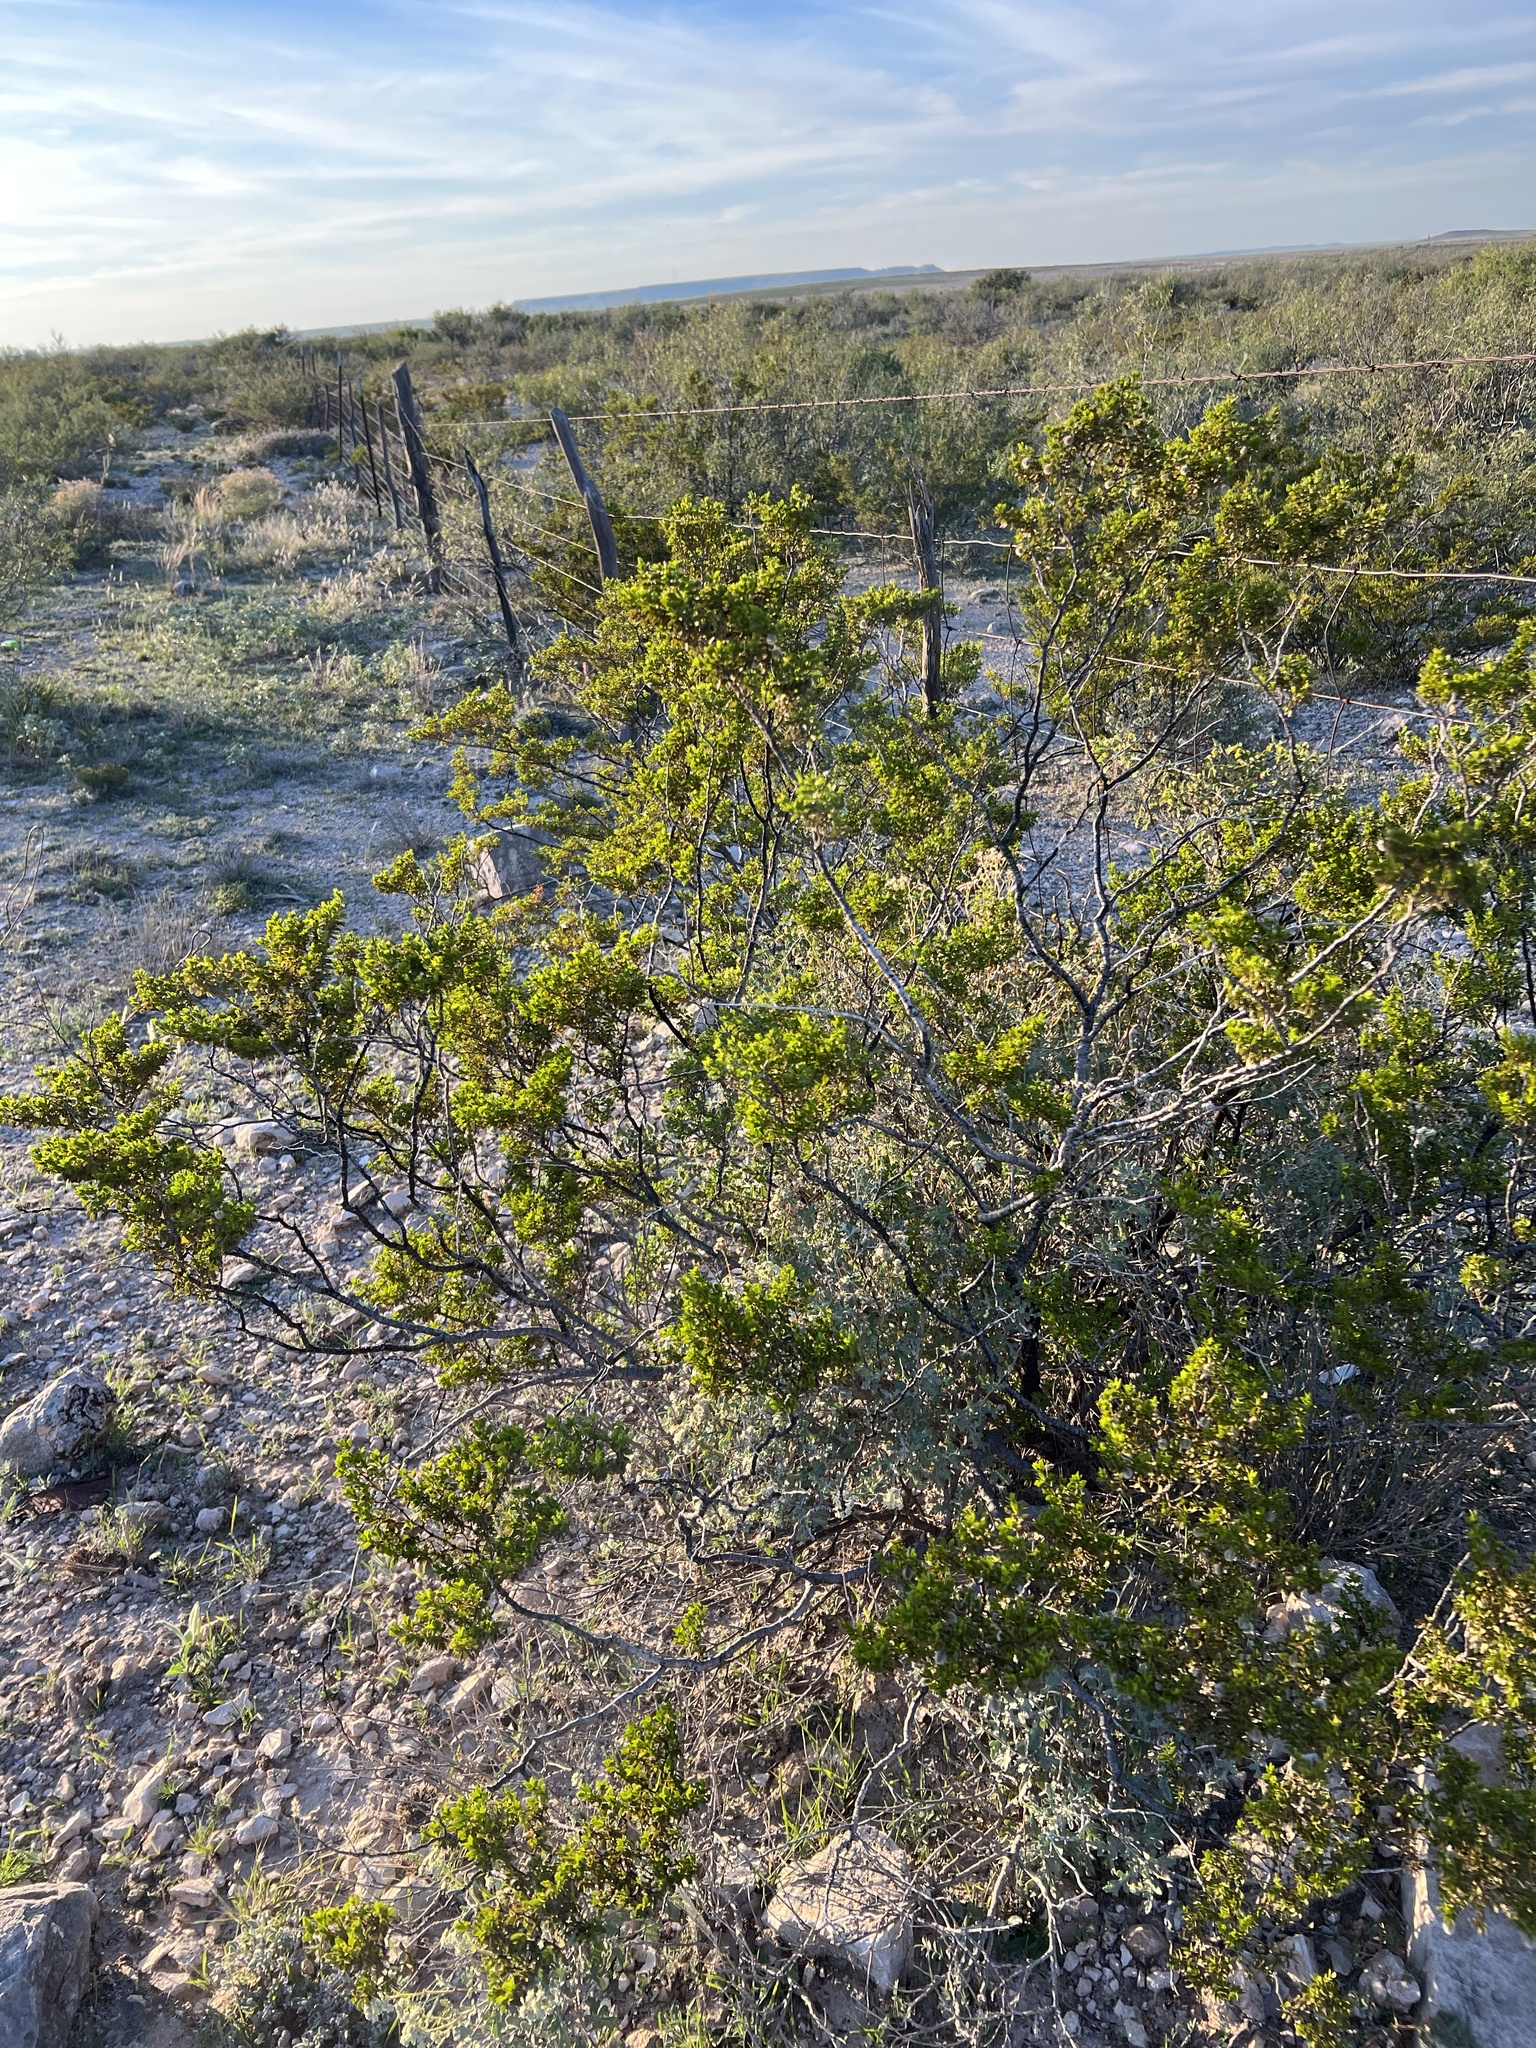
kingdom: Plantae
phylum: Tracheophyta
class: Magnoliopsida
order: Zygophyllales
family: Zygophyllaceae
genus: Larrea
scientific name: Larrea tridentata
